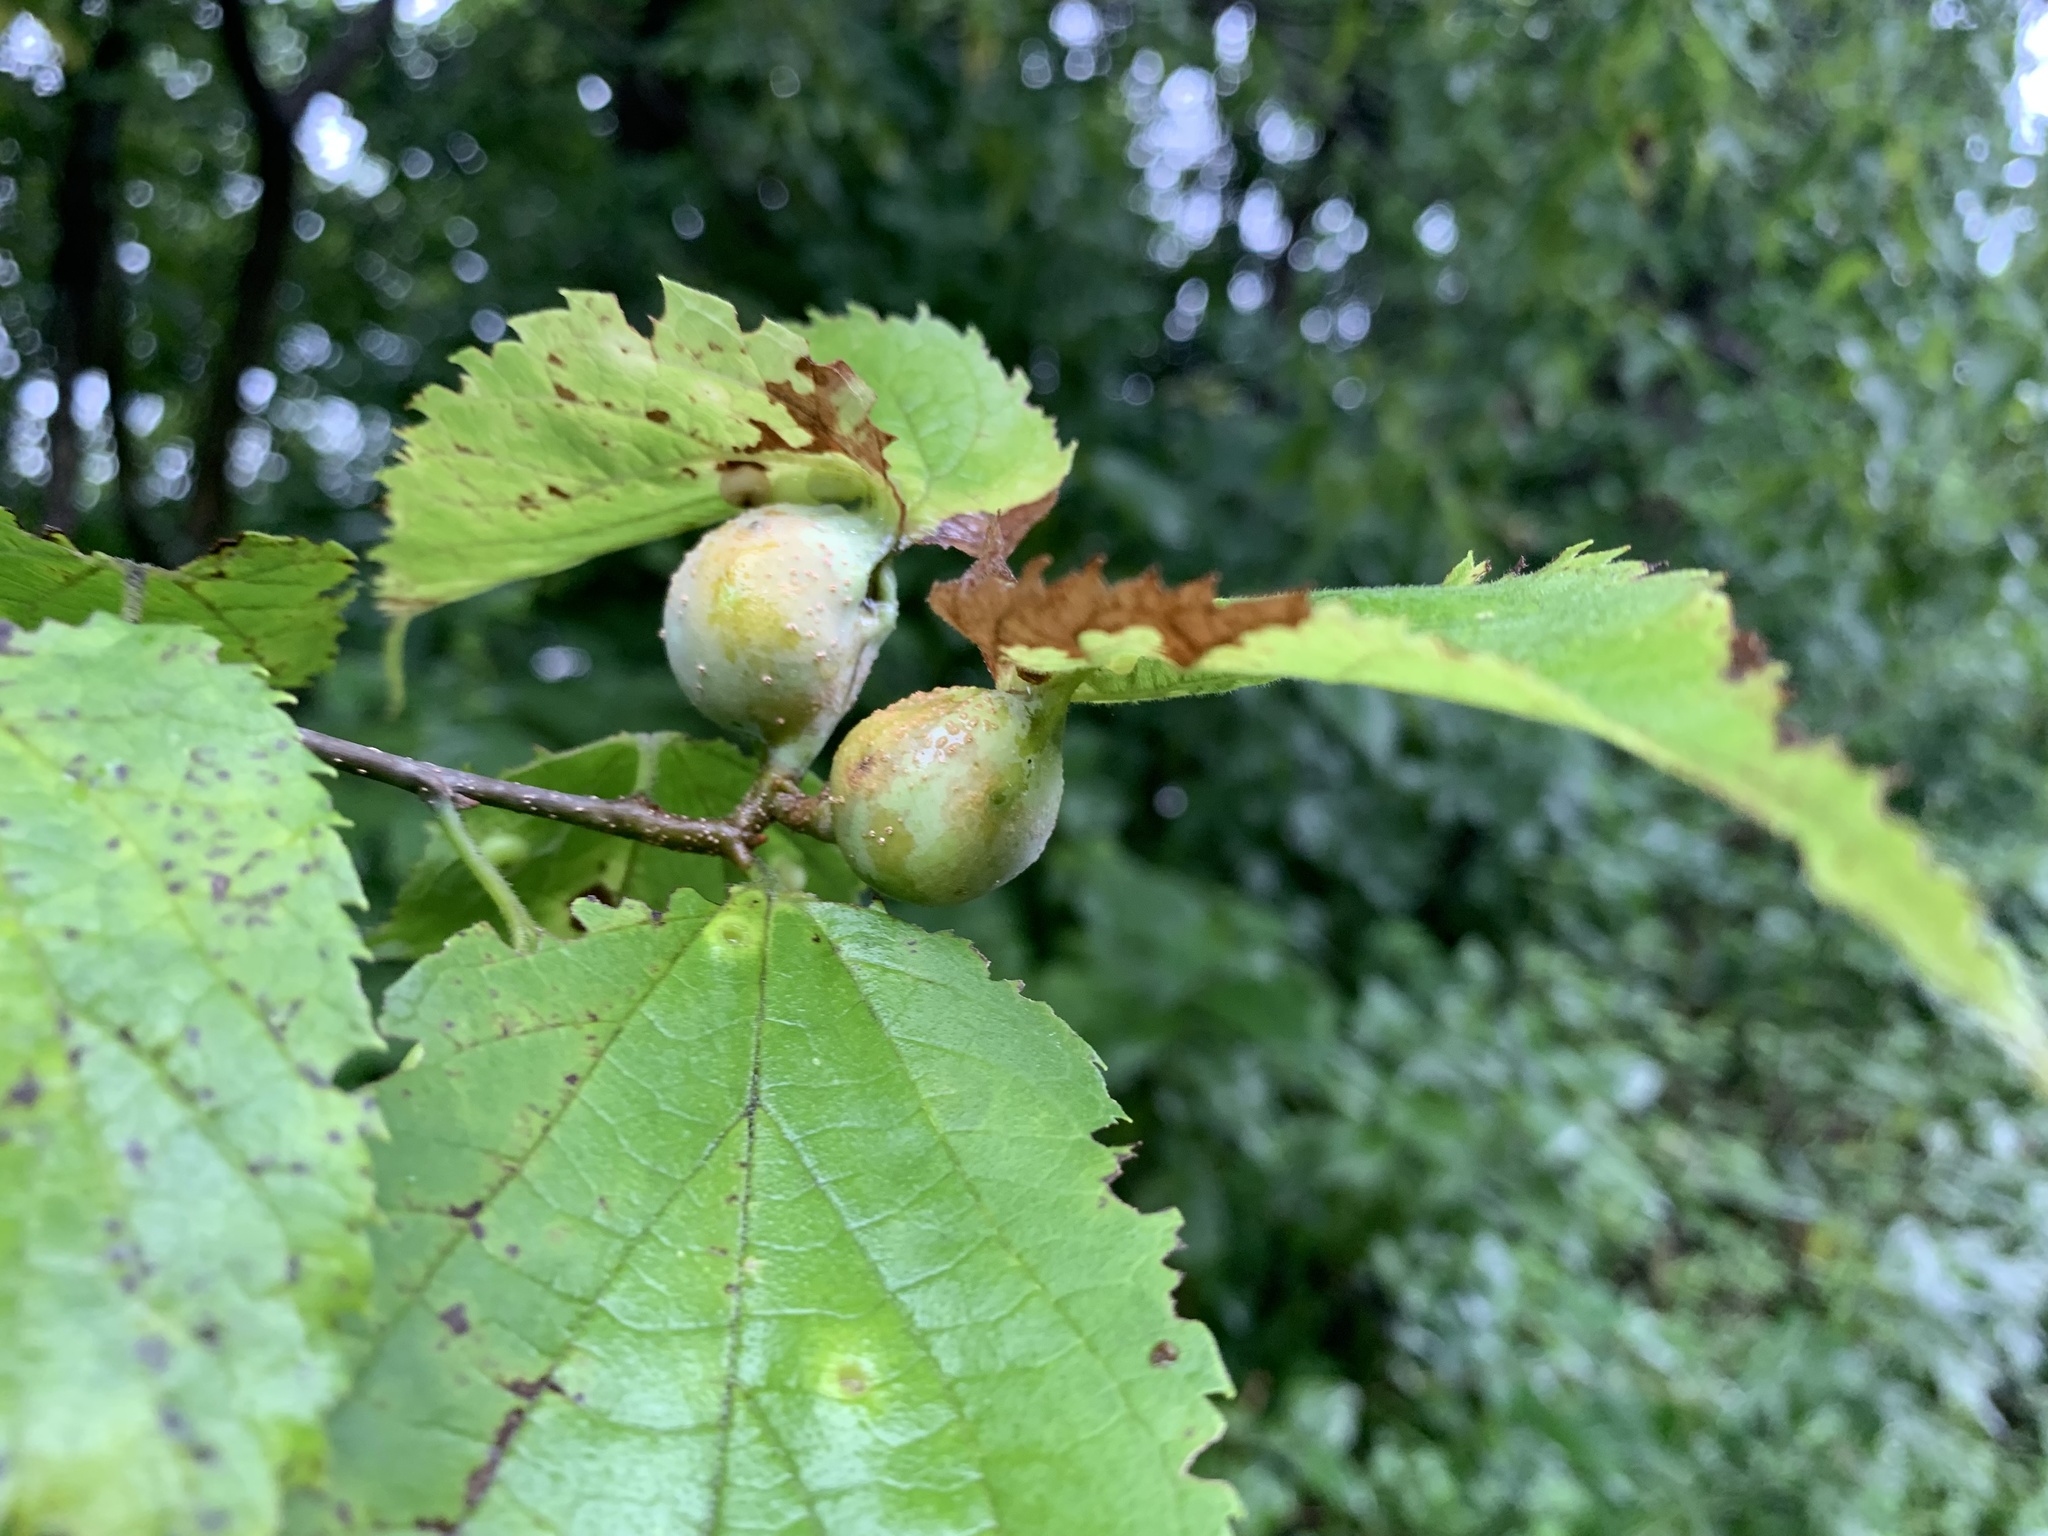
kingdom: Animalia
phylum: Arthropoda
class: Insecta
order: Hemiptera
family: Aphalaridae
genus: Pachypsylla
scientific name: Pachypsylla venusta
